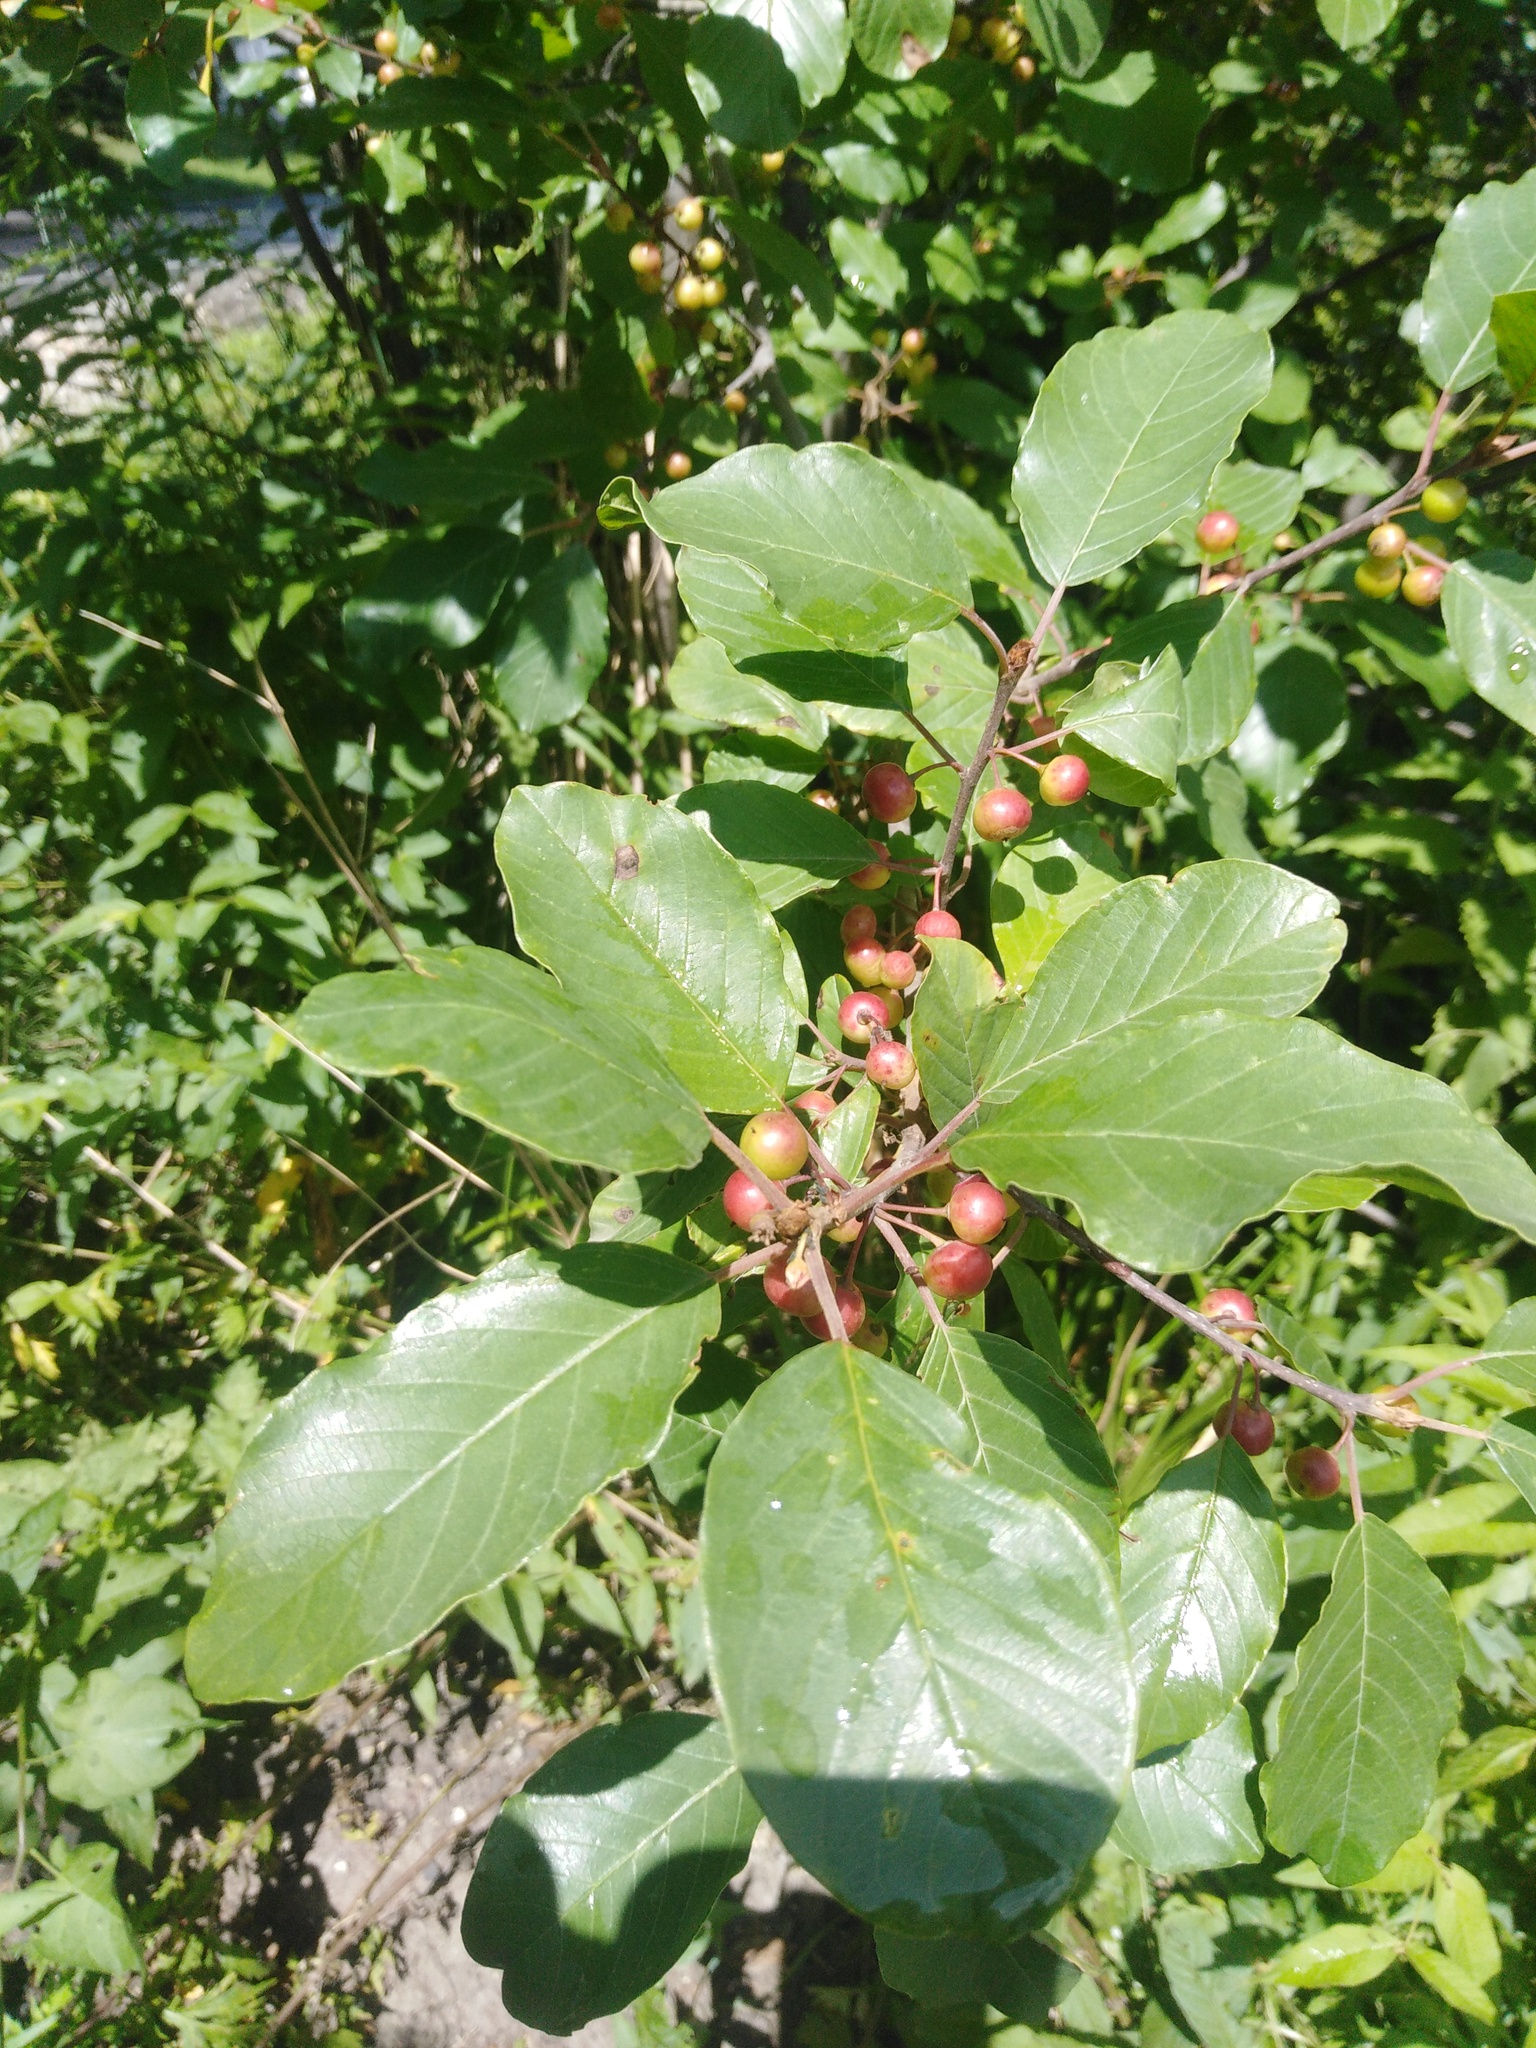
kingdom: Plantae
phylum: Tracheophyta
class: Magnoliopsida
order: Rosales
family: Rhamnaceae
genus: Frangula
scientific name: Frangula alnus
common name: Alder buckthorn
